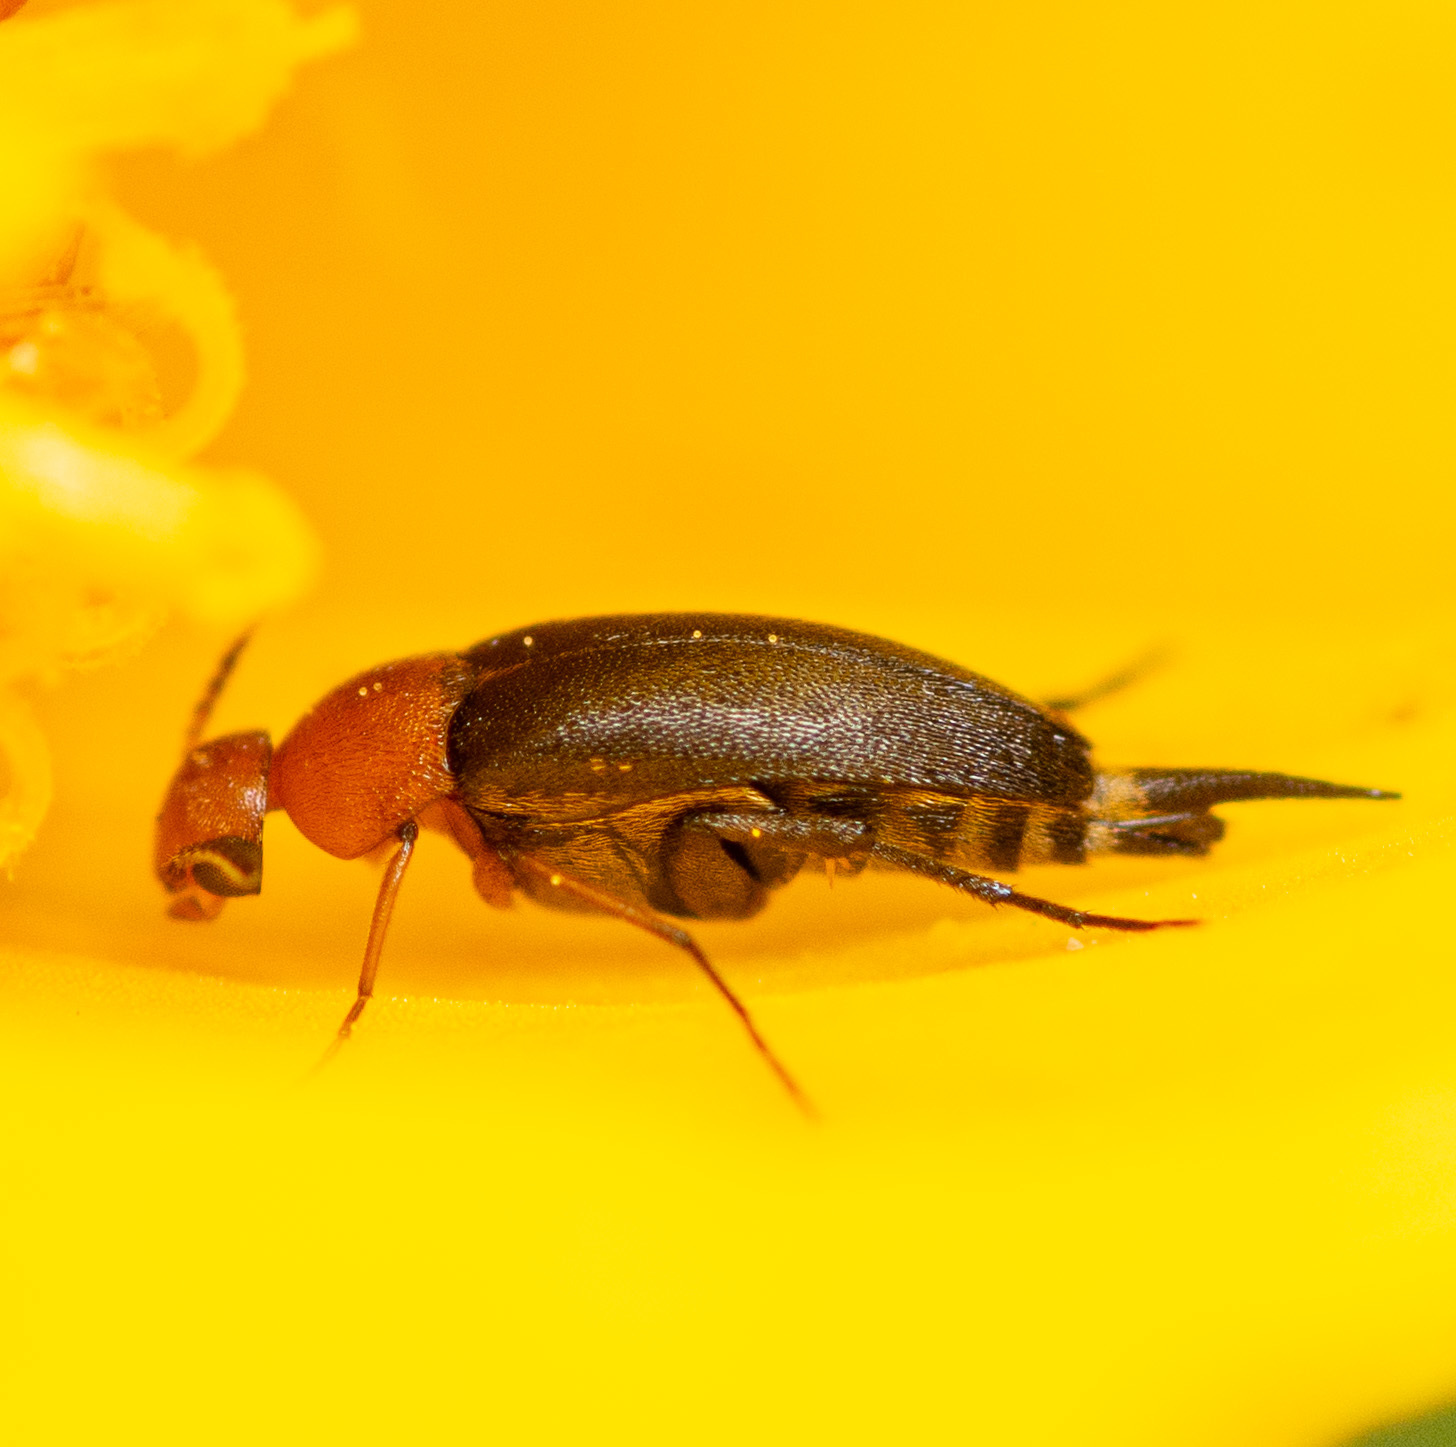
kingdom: Animalia
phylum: Arthropoda
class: Insecta
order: Coleoptera
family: Mordellidae
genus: Mordellistena
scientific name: Mordellistena cervicalis
